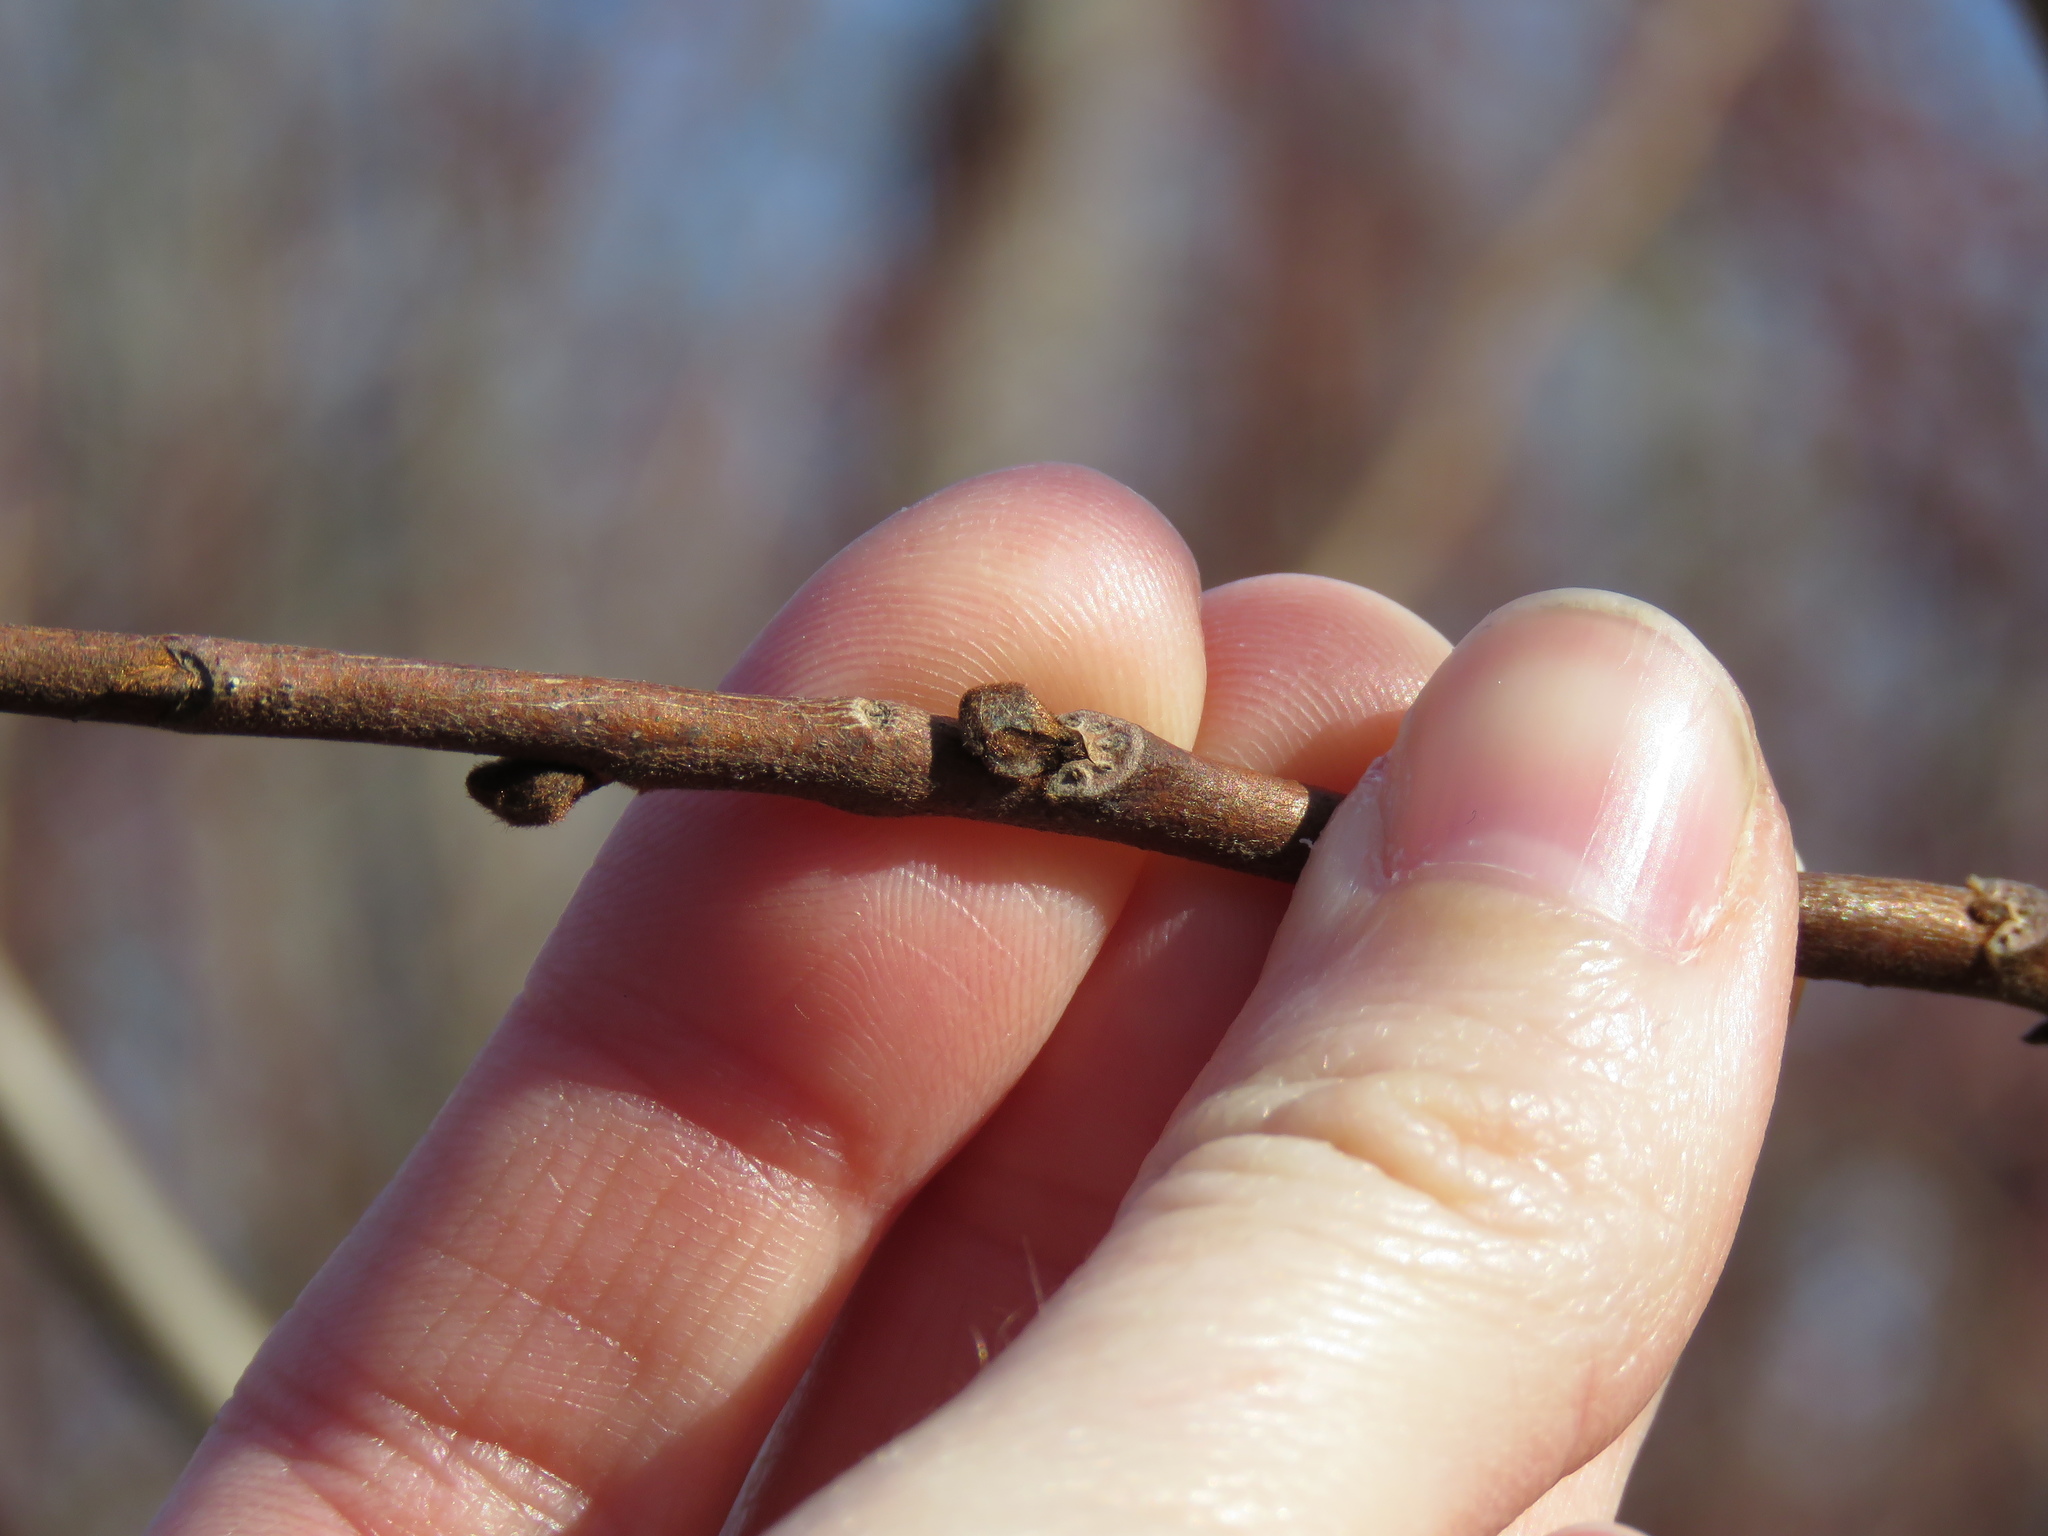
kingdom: Plantae
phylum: Tracheophyta
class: Magnoliopsida
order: Magnoliales
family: Annonaceae
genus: Asimina
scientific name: Asimina triloba
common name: Dog-banana
